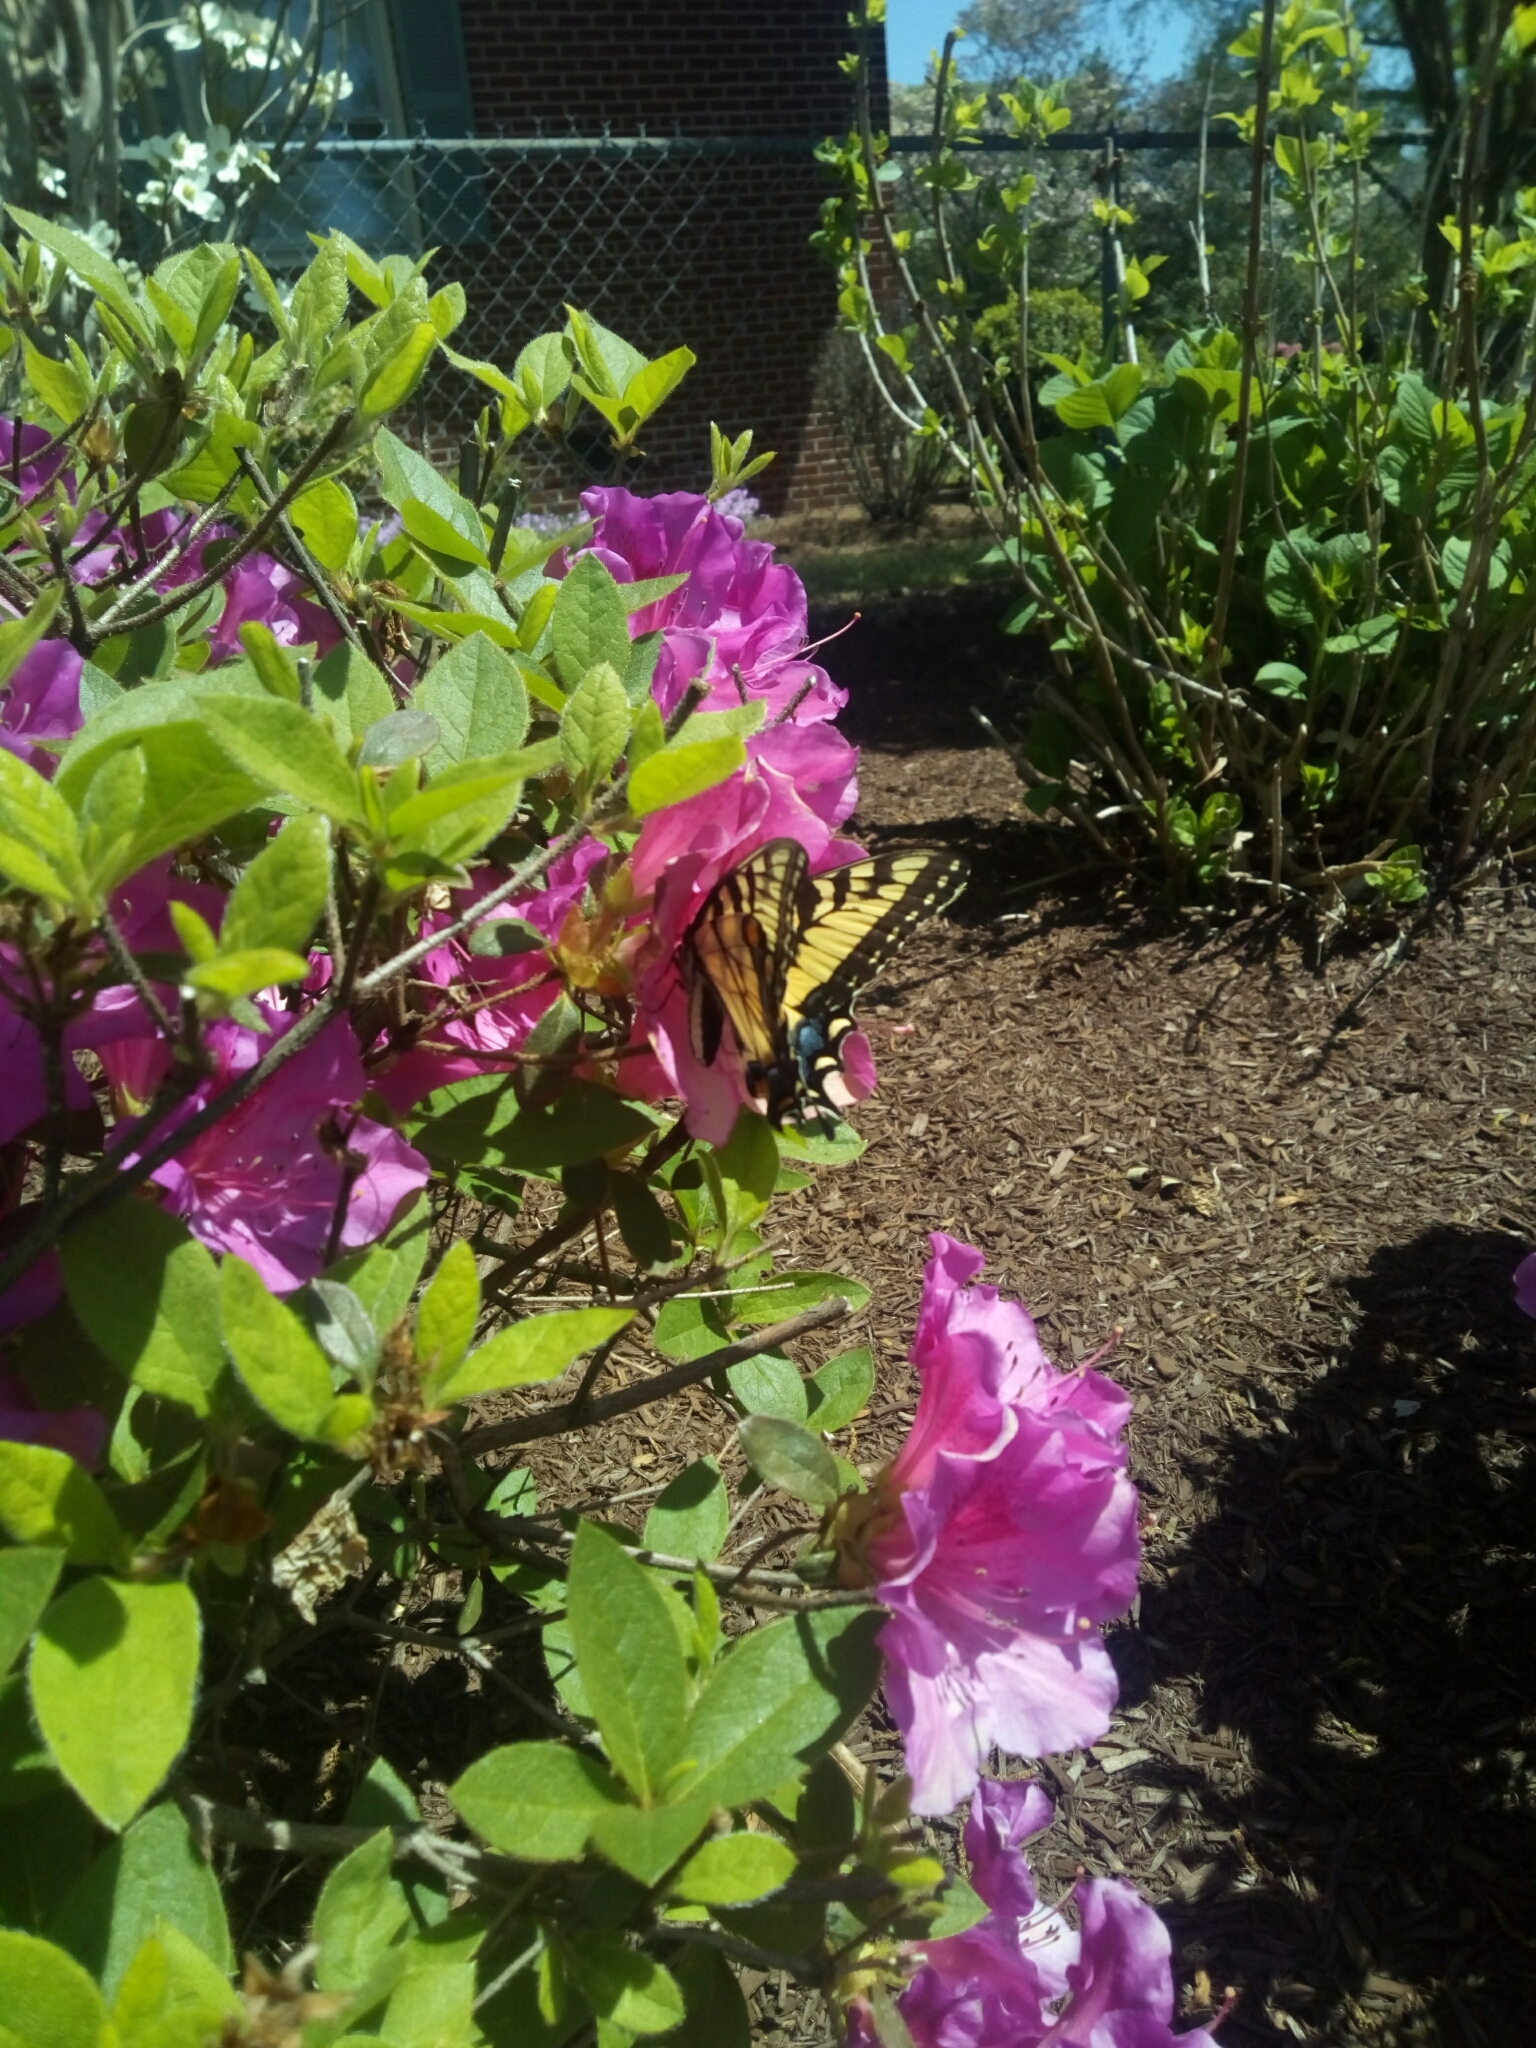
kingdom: Animalia
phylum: Arthropoda
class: Insecta
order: Lepidoptera
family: Papilionidae
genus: Papilio
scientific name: Papilio glaucus
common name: Tiger swallowtail
